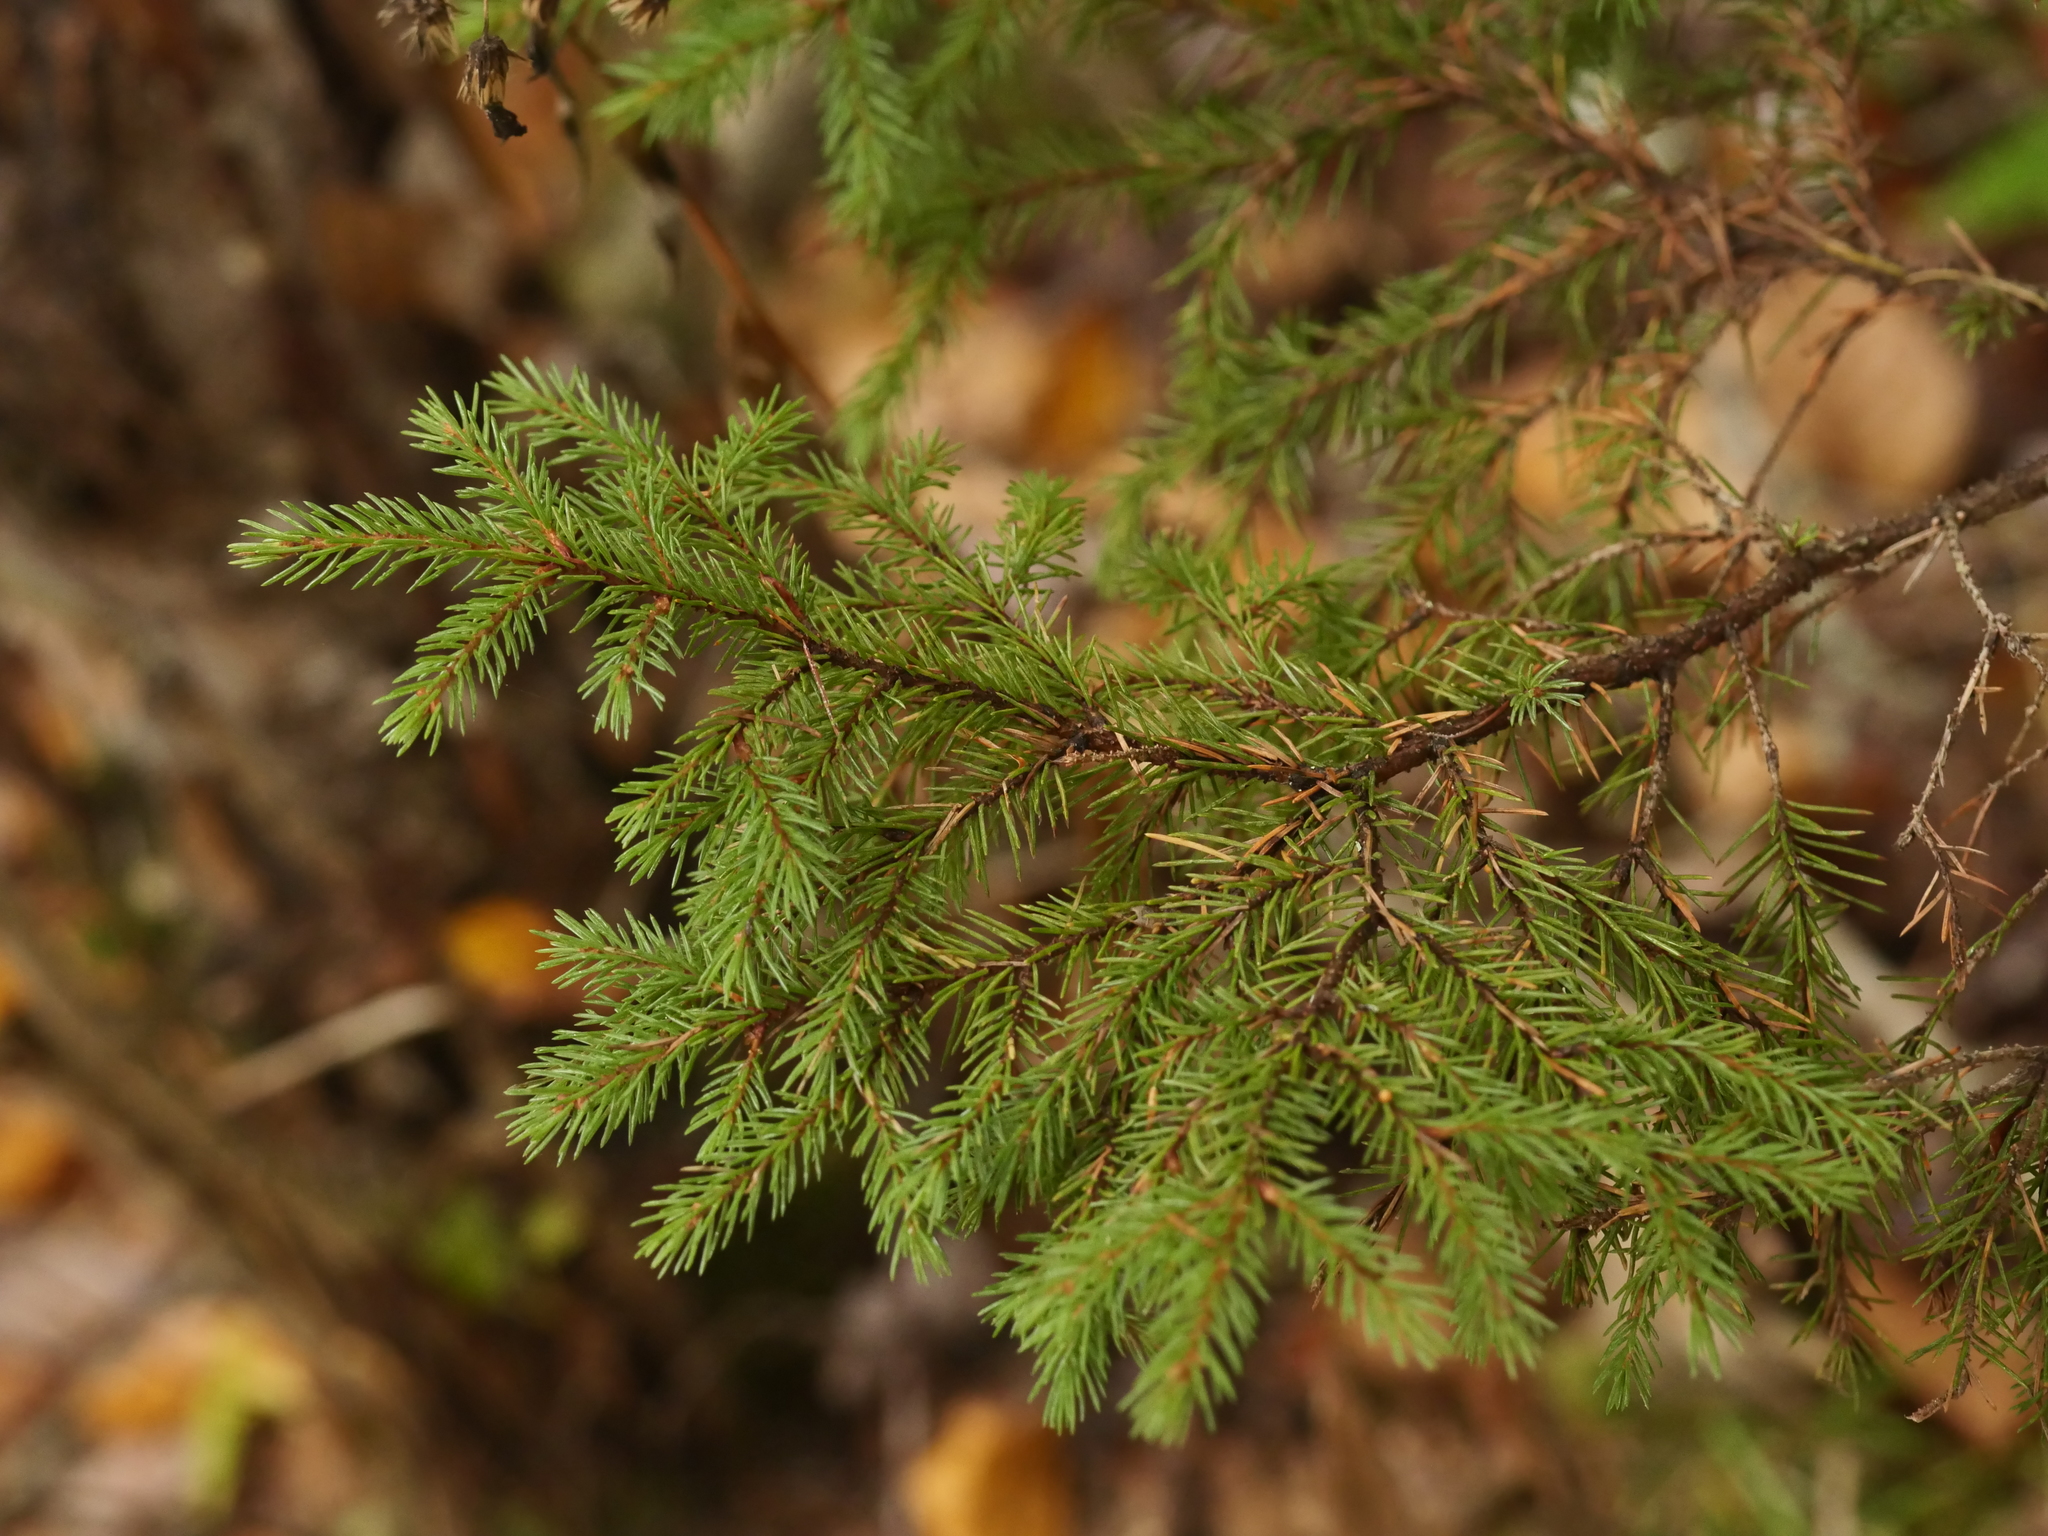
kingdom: Plantae
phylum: Tracheophyta
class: Pinopsida
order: Pinales
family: Pinaceae
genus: Picea
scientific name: Picea rubens
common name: Red spruce
